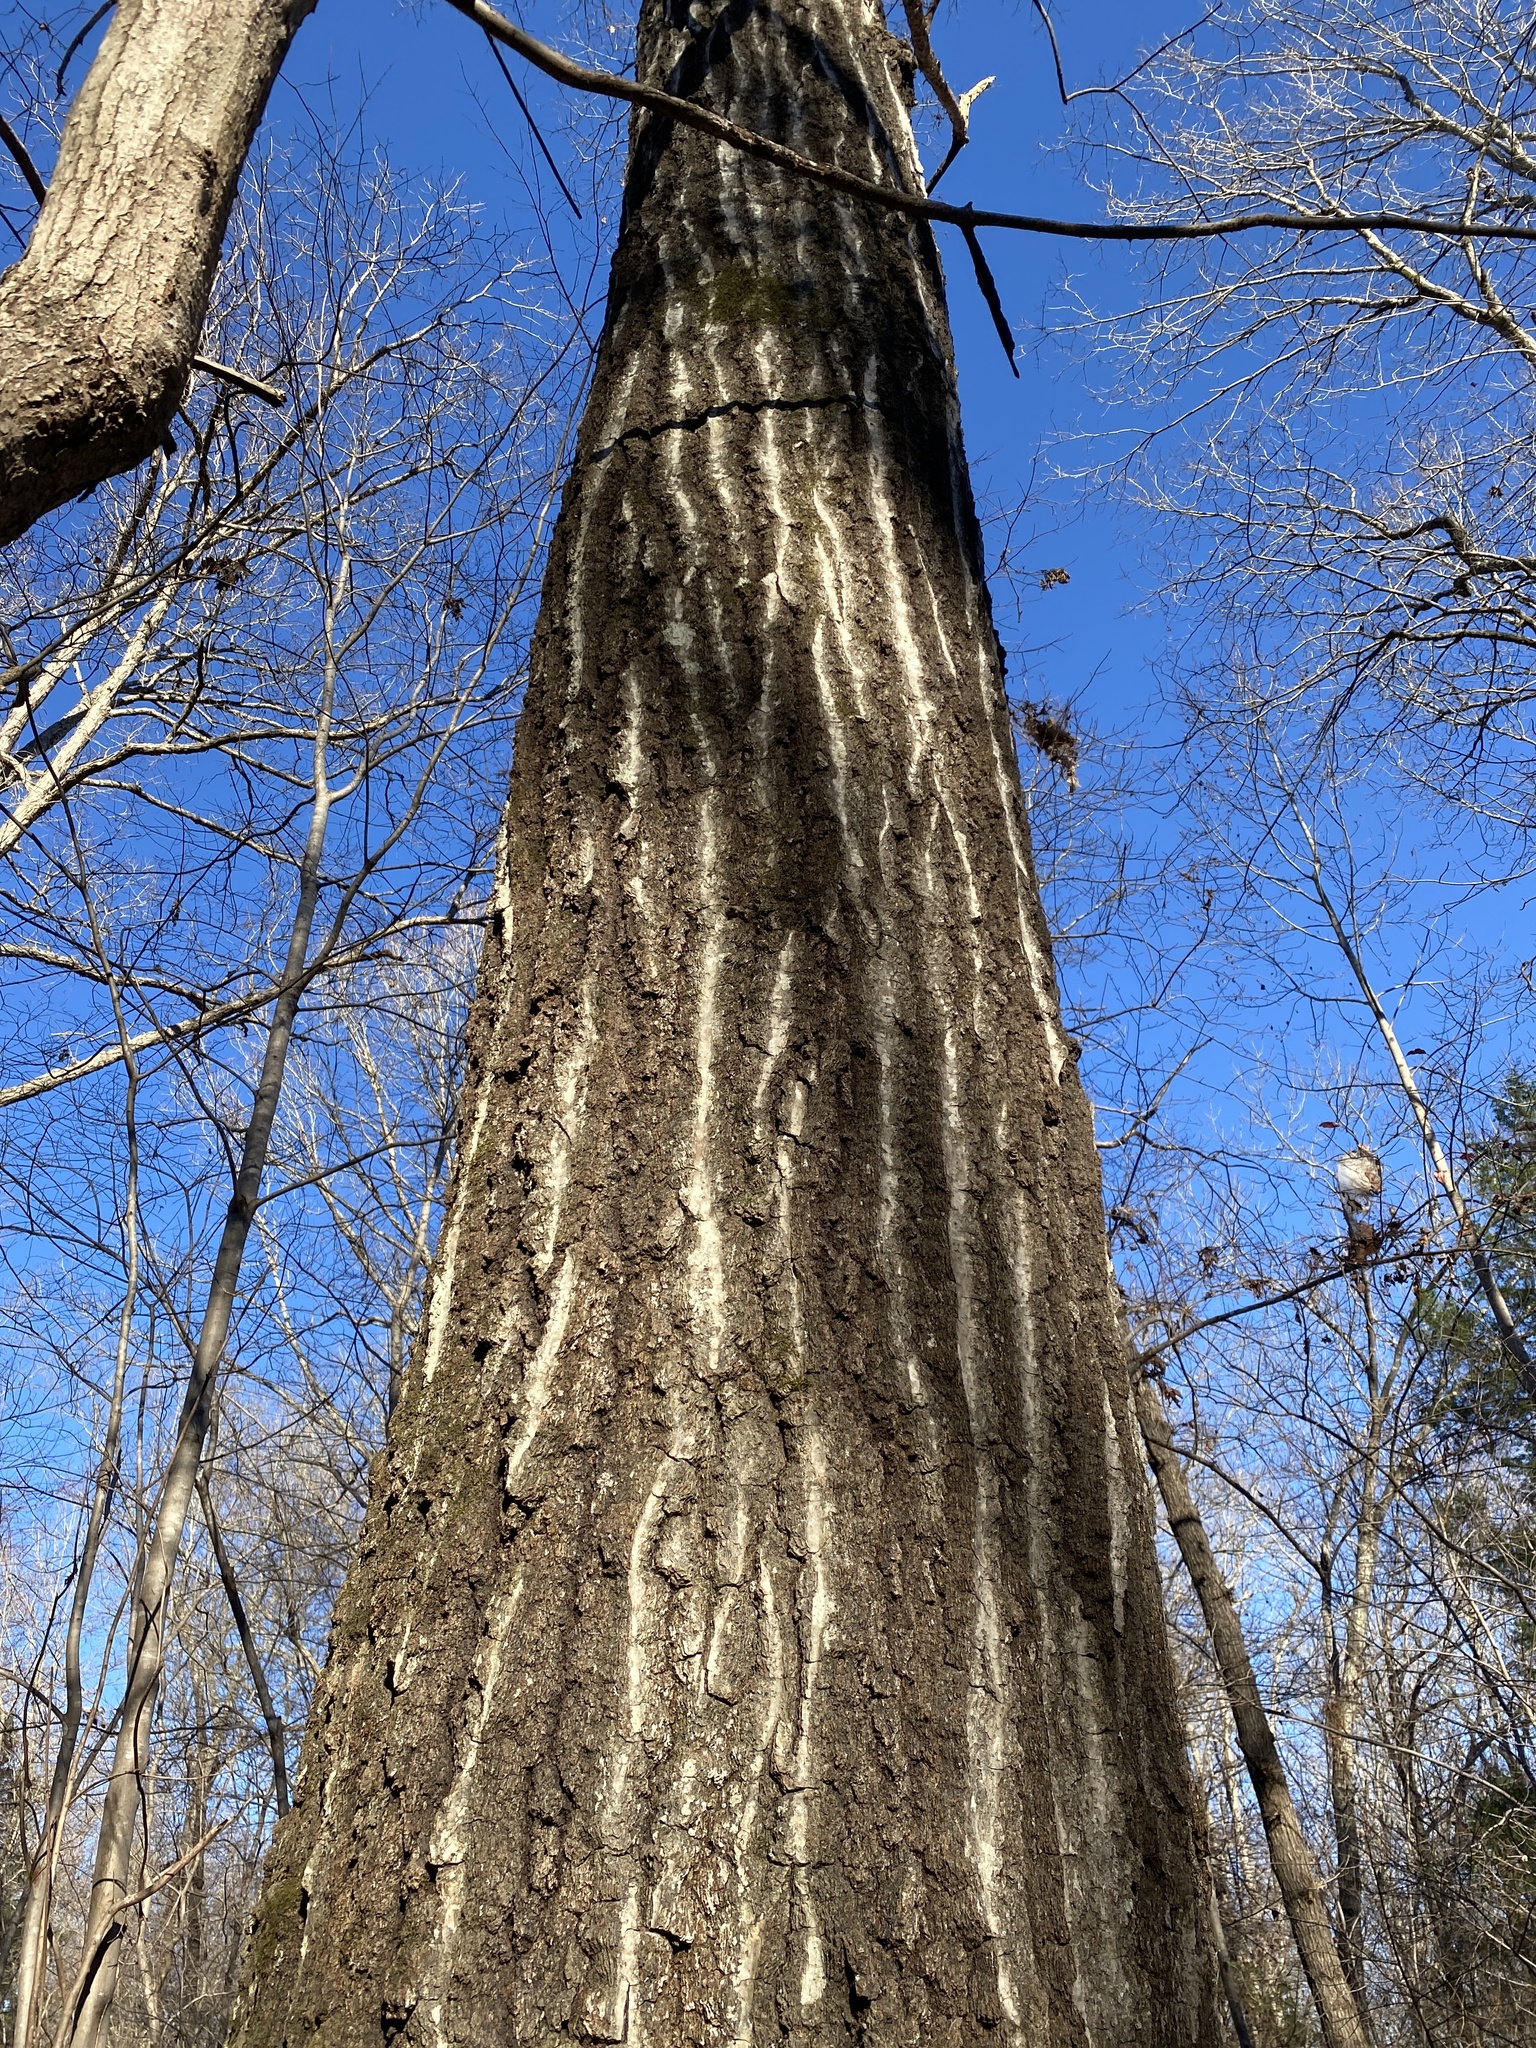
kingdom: Plantae
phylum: Tracheophyta
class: Magnoliopsida
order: Fagales
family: Fagaceae
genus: Quercus
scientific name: Quercus rubra
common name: Red oak
